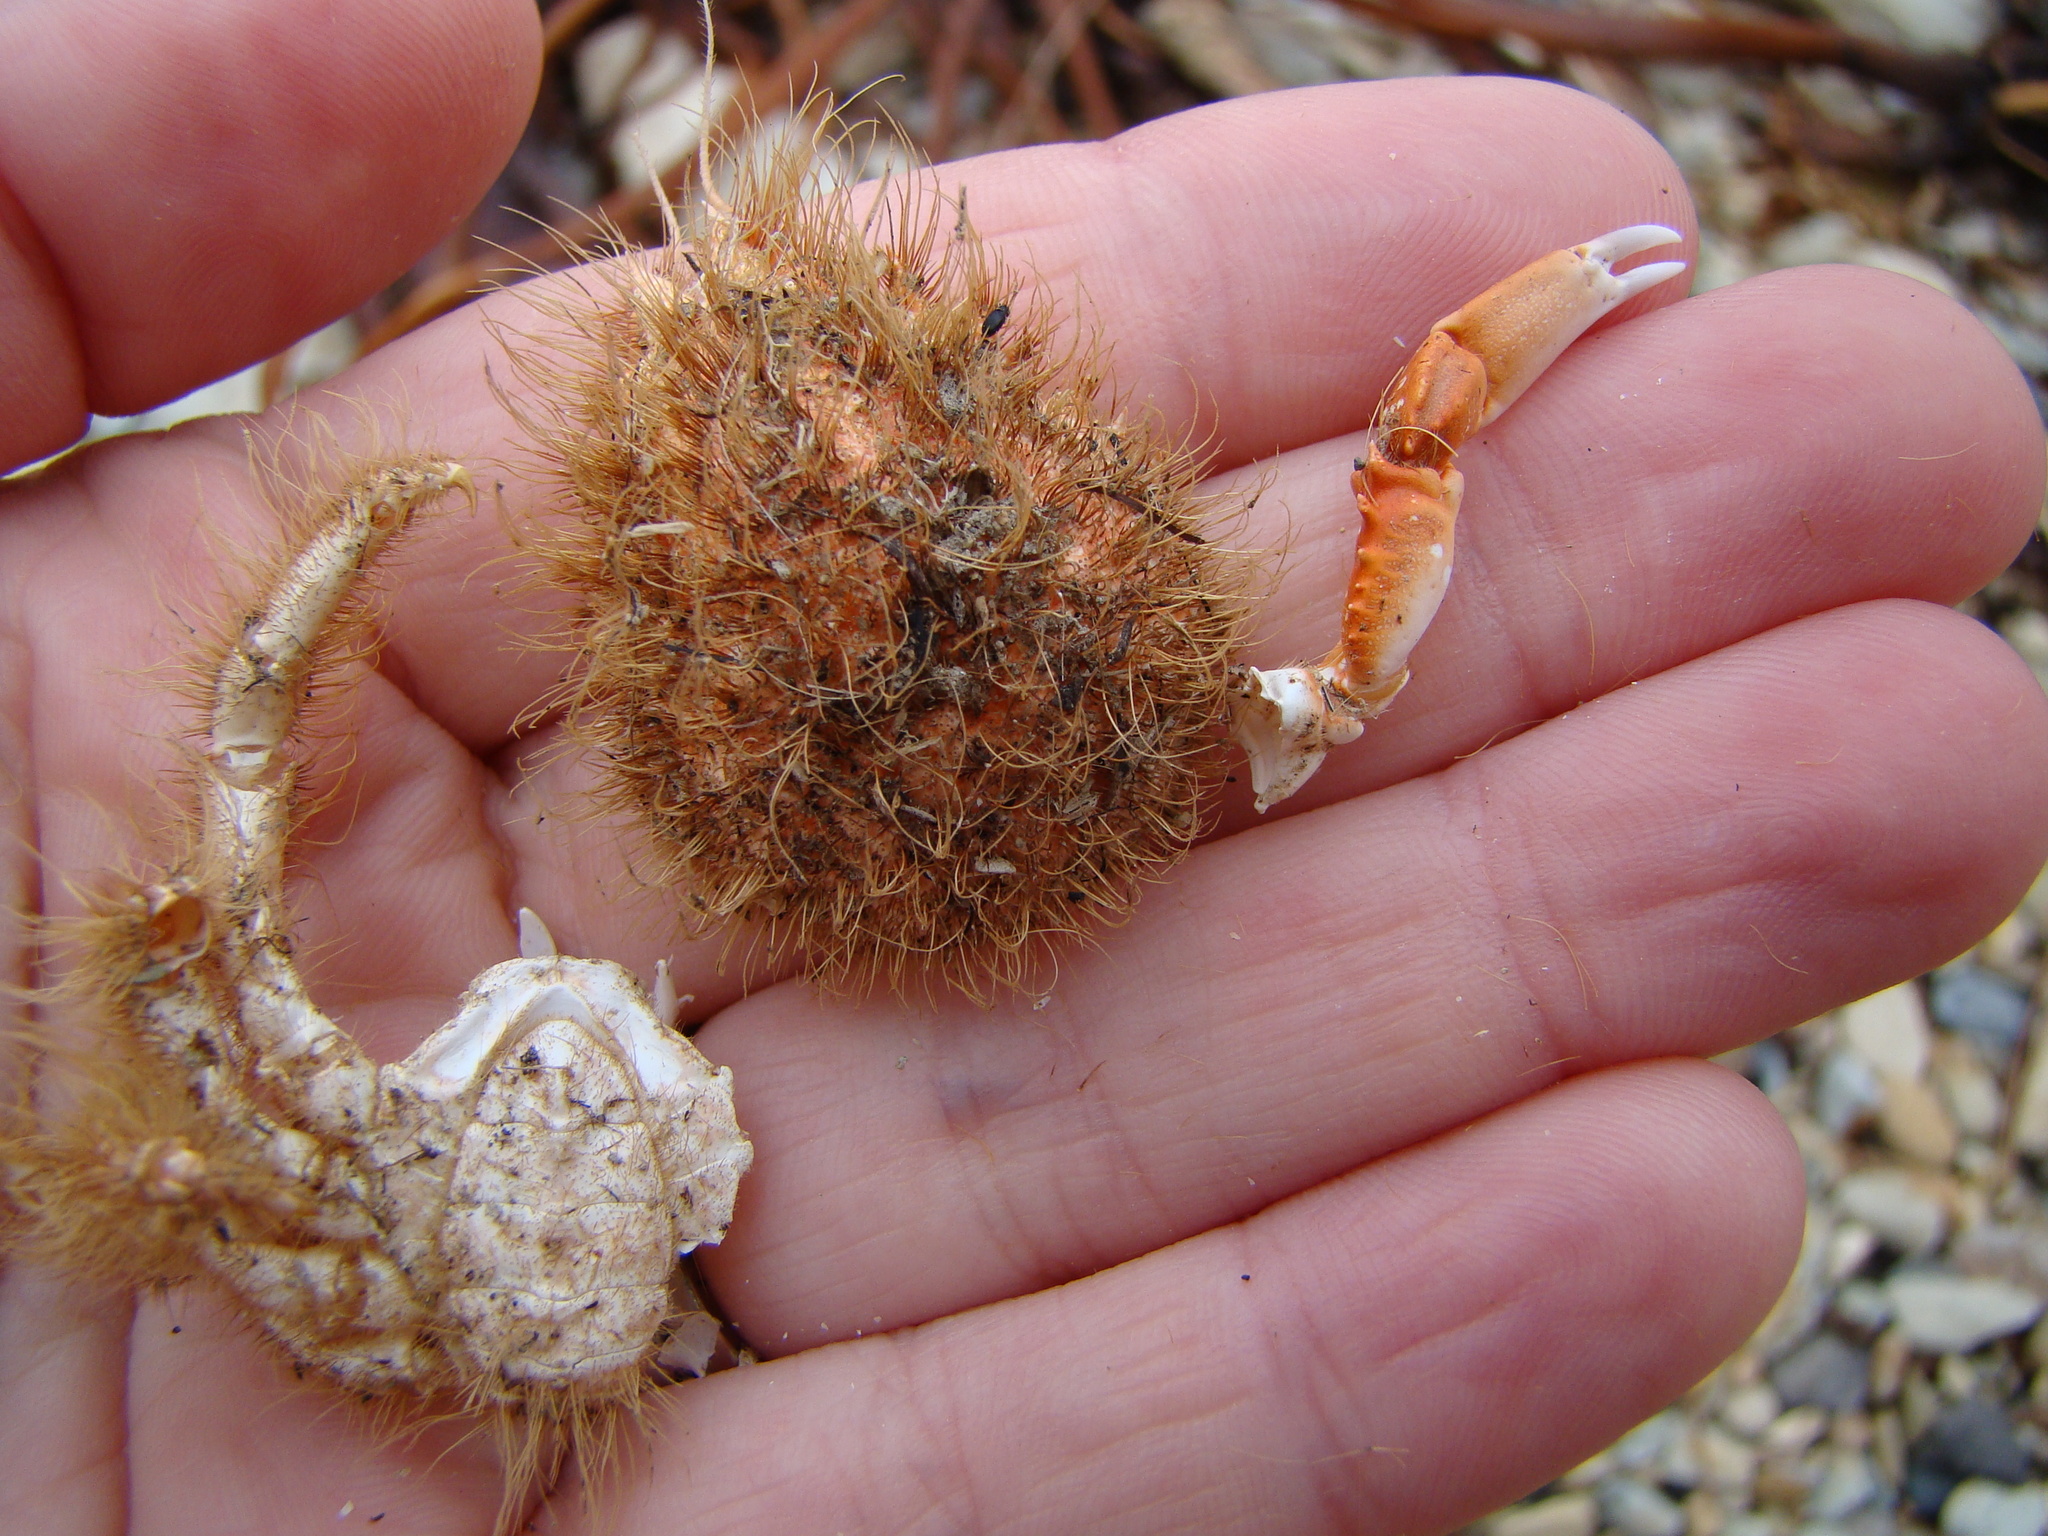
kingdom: Animalia
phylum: Arthropoda
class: Malacostraca
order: Decapoda
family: Majidae
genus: Notomithrax
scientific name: Notomithrax ursus
